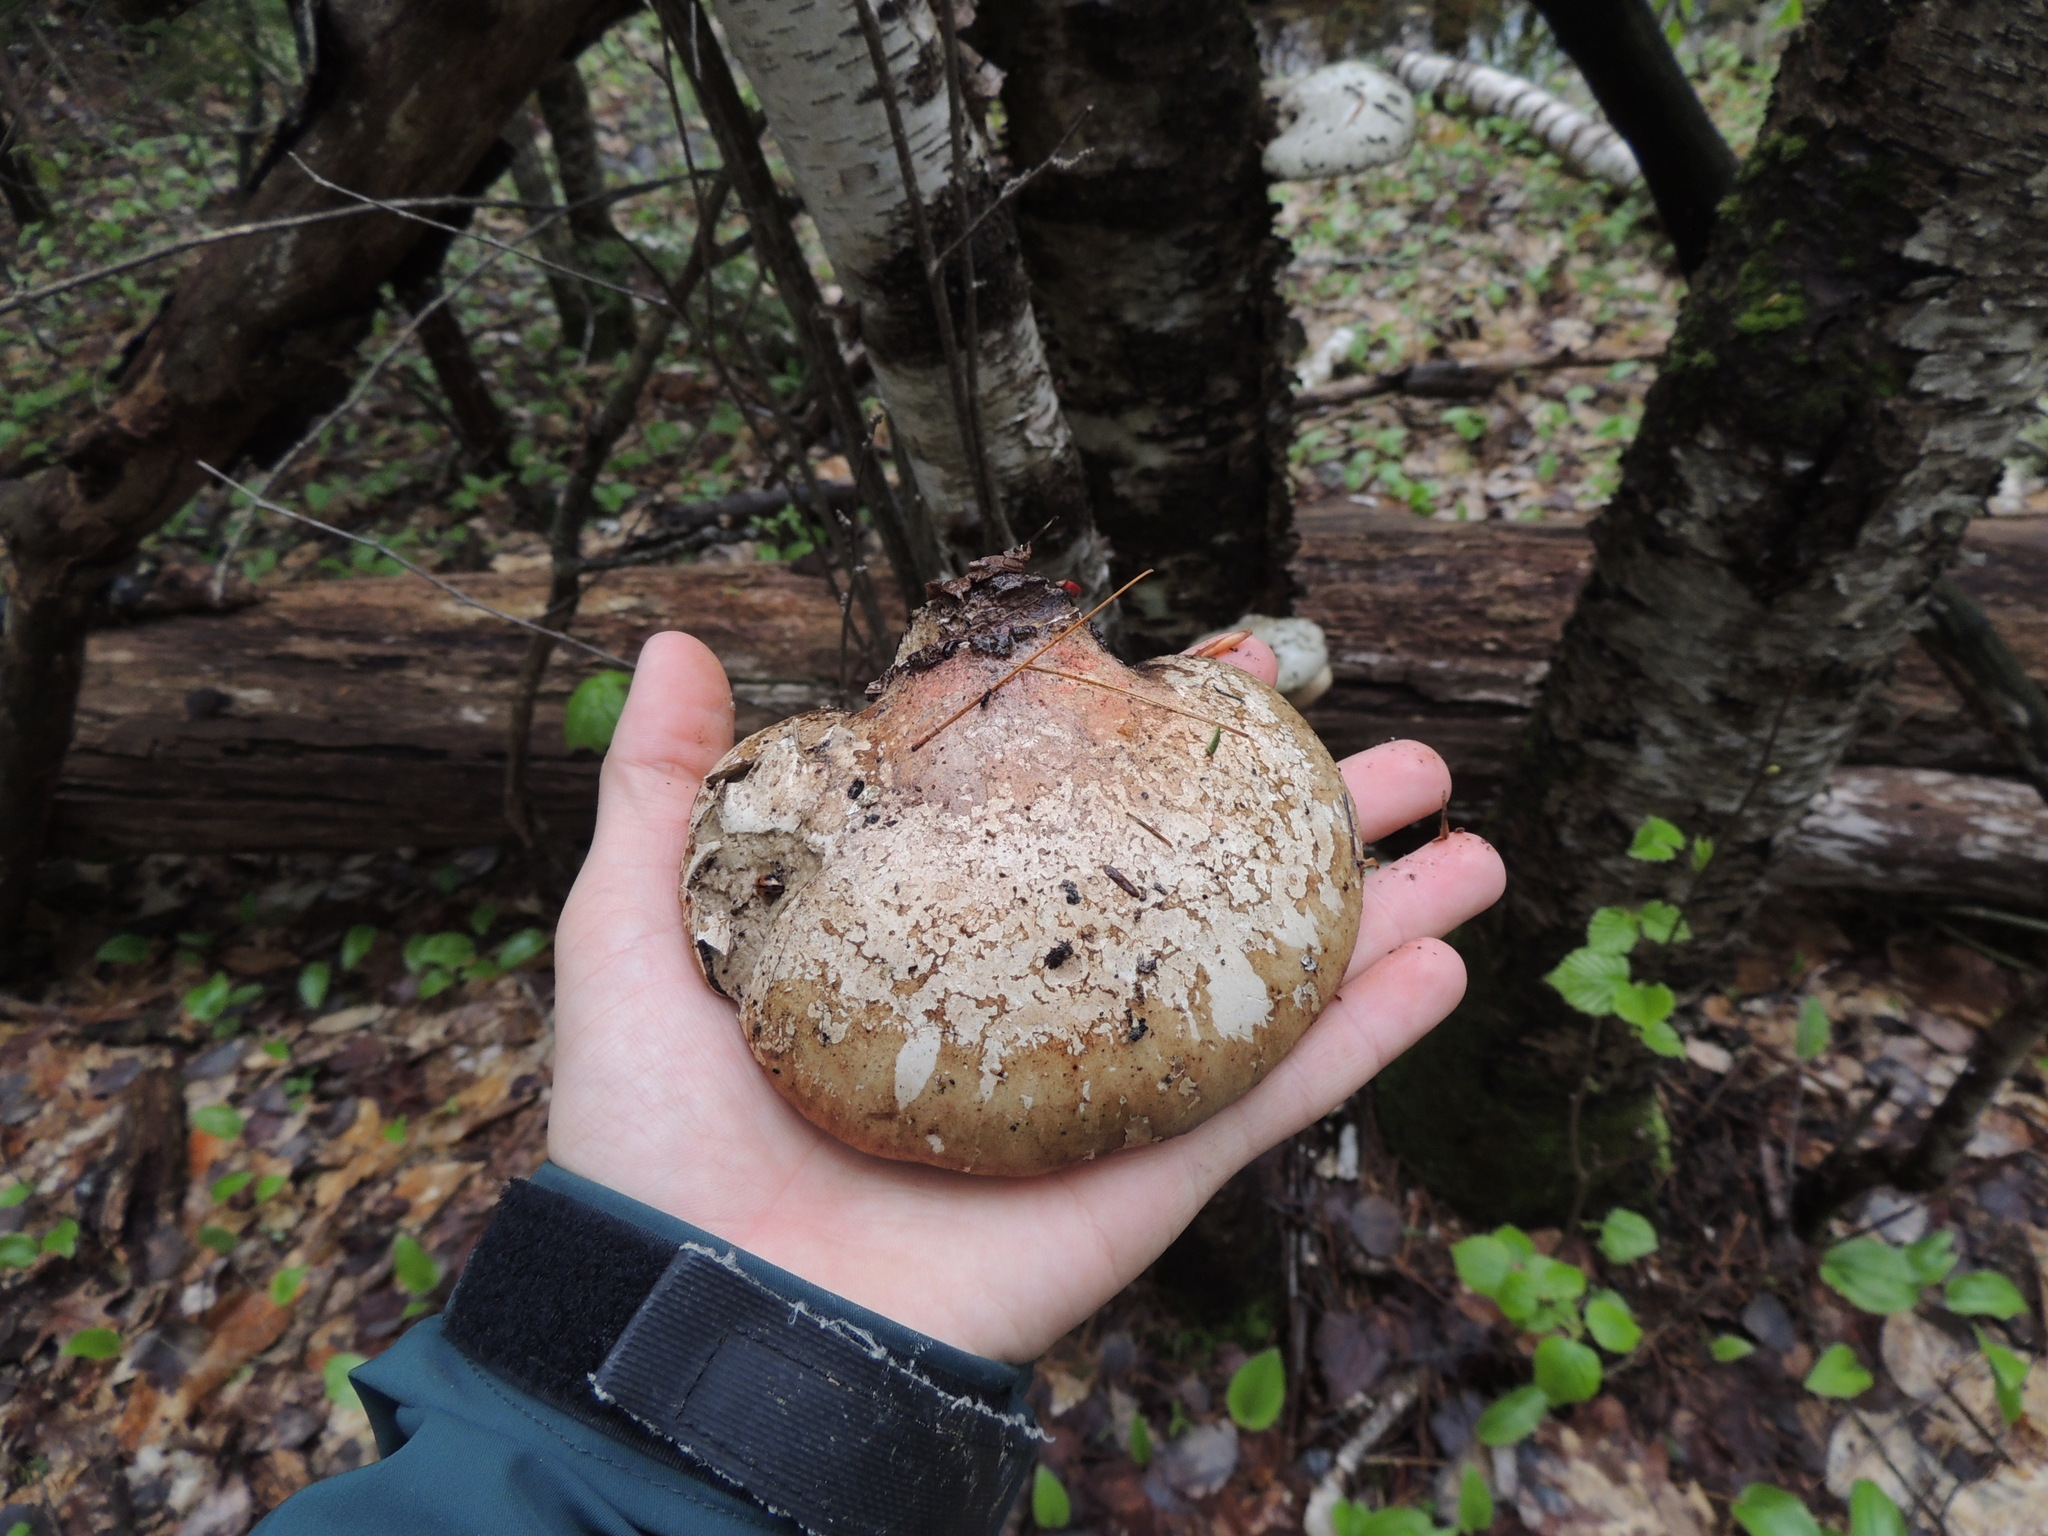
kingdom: Fungi
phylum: Basidiomycota
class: Agaricomycetes
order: Polyporales
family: Fomitopsidaceae
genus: Fomitopsis
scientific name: Fomitopsis betulina
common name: Birch polypore
